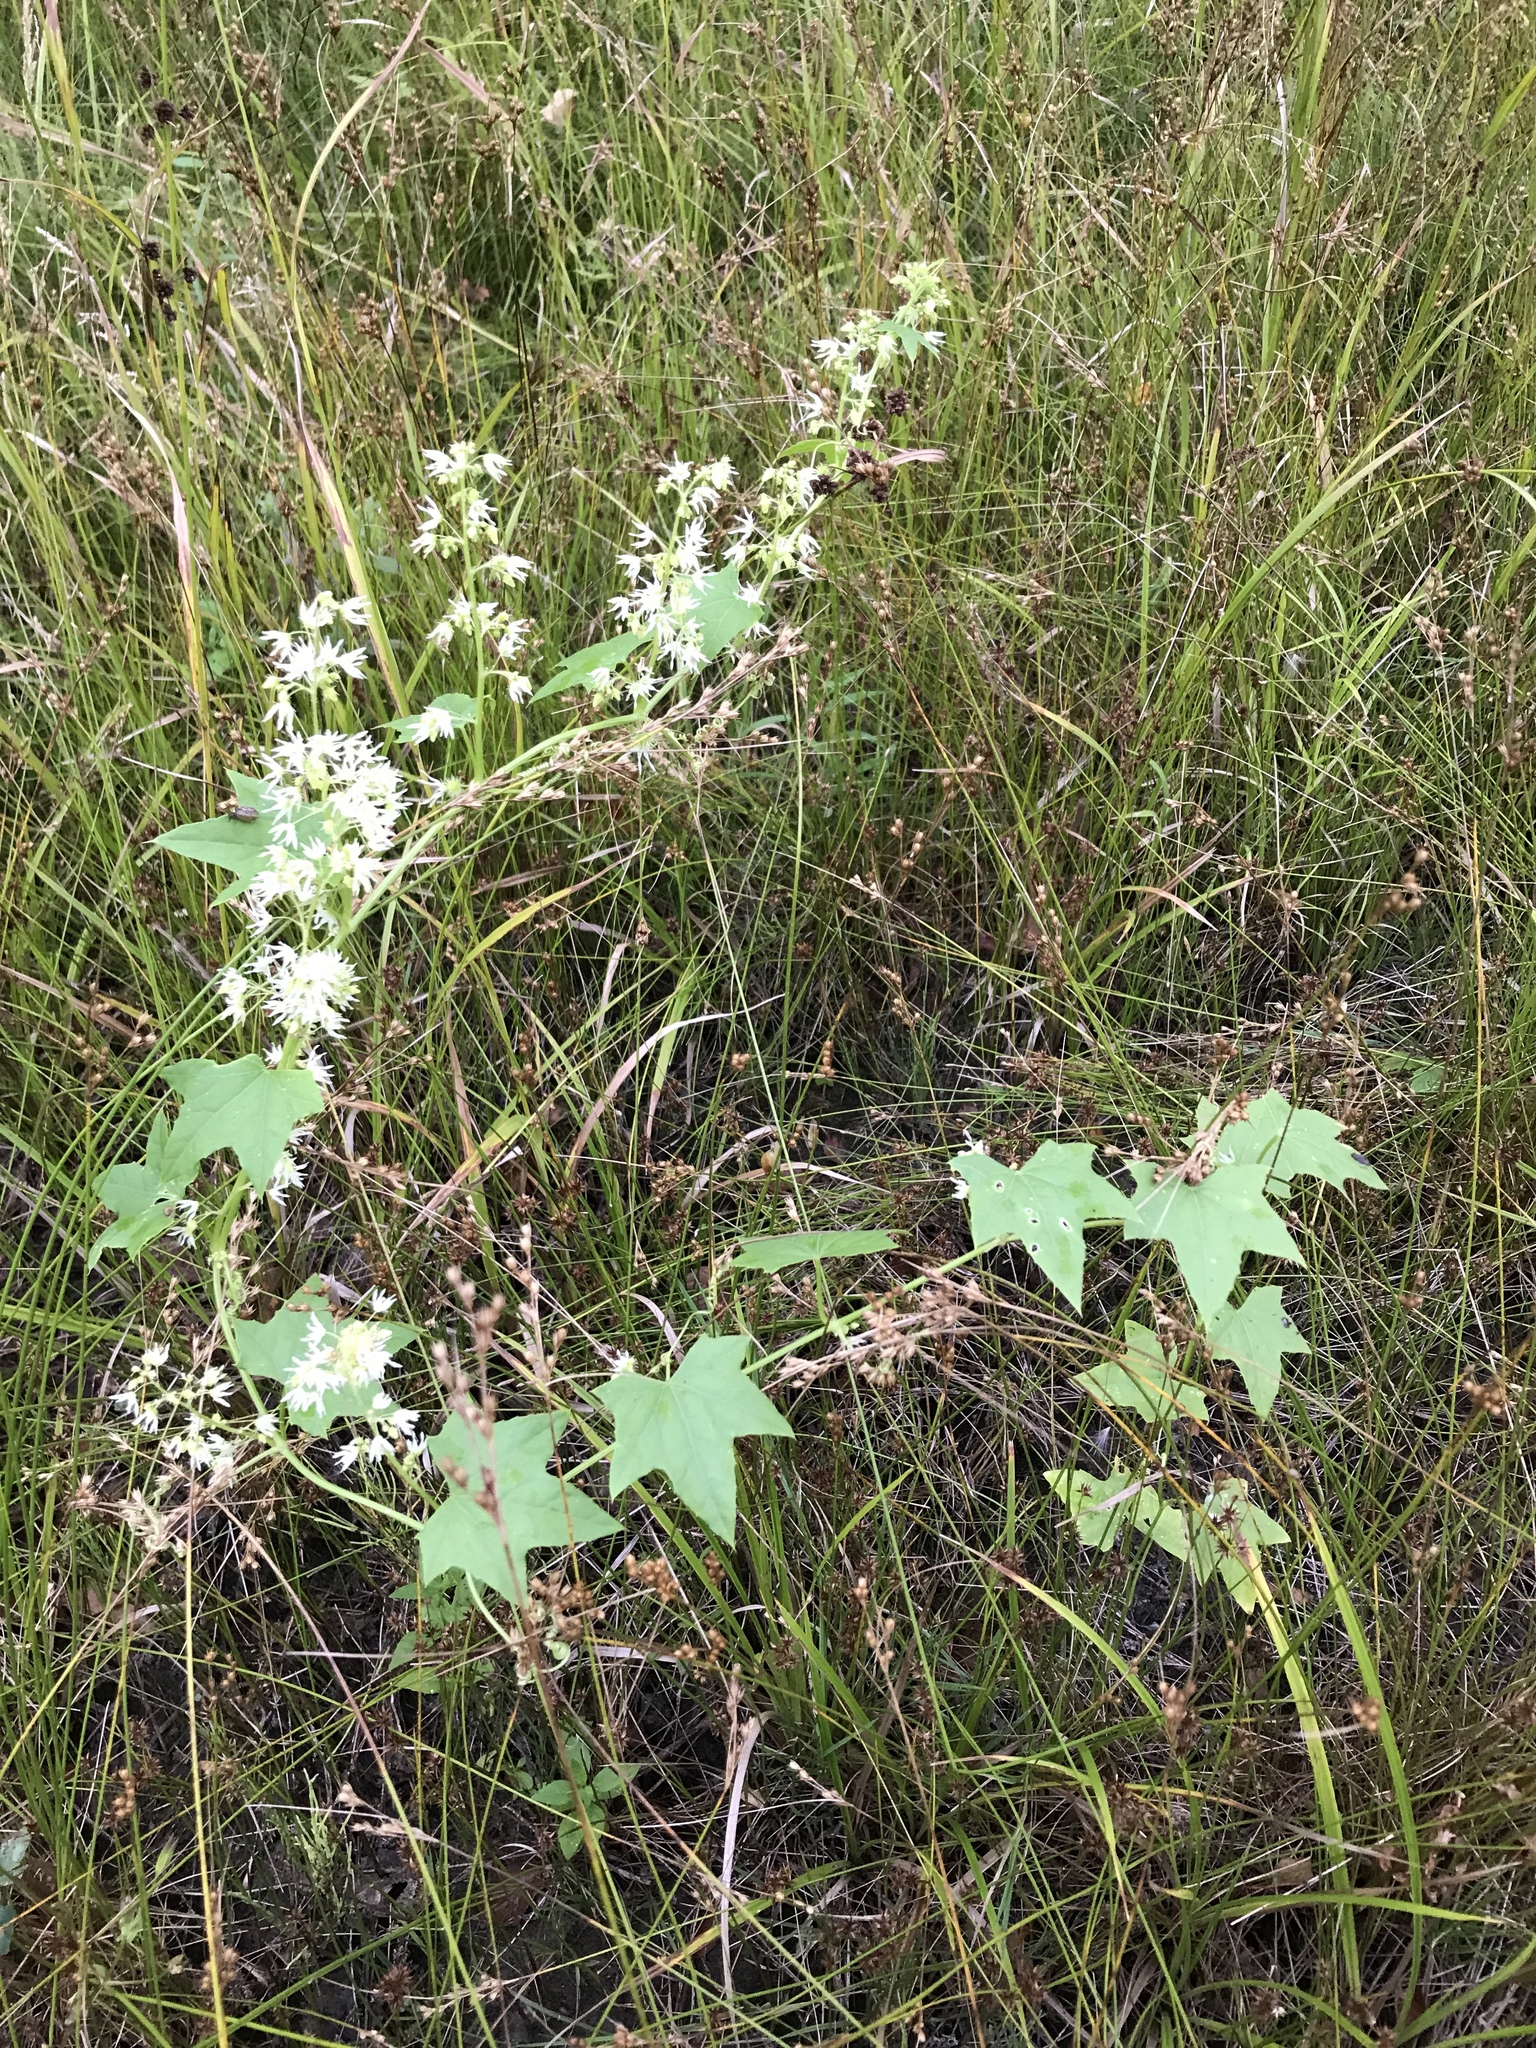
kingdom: Plantae
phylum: Tracheophyta
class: Magnoliopsida
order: Cucurbitales
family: Cucurbitaceae
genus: Echinocystis
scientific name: Echinocystis lobata
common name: Wild cucumber
